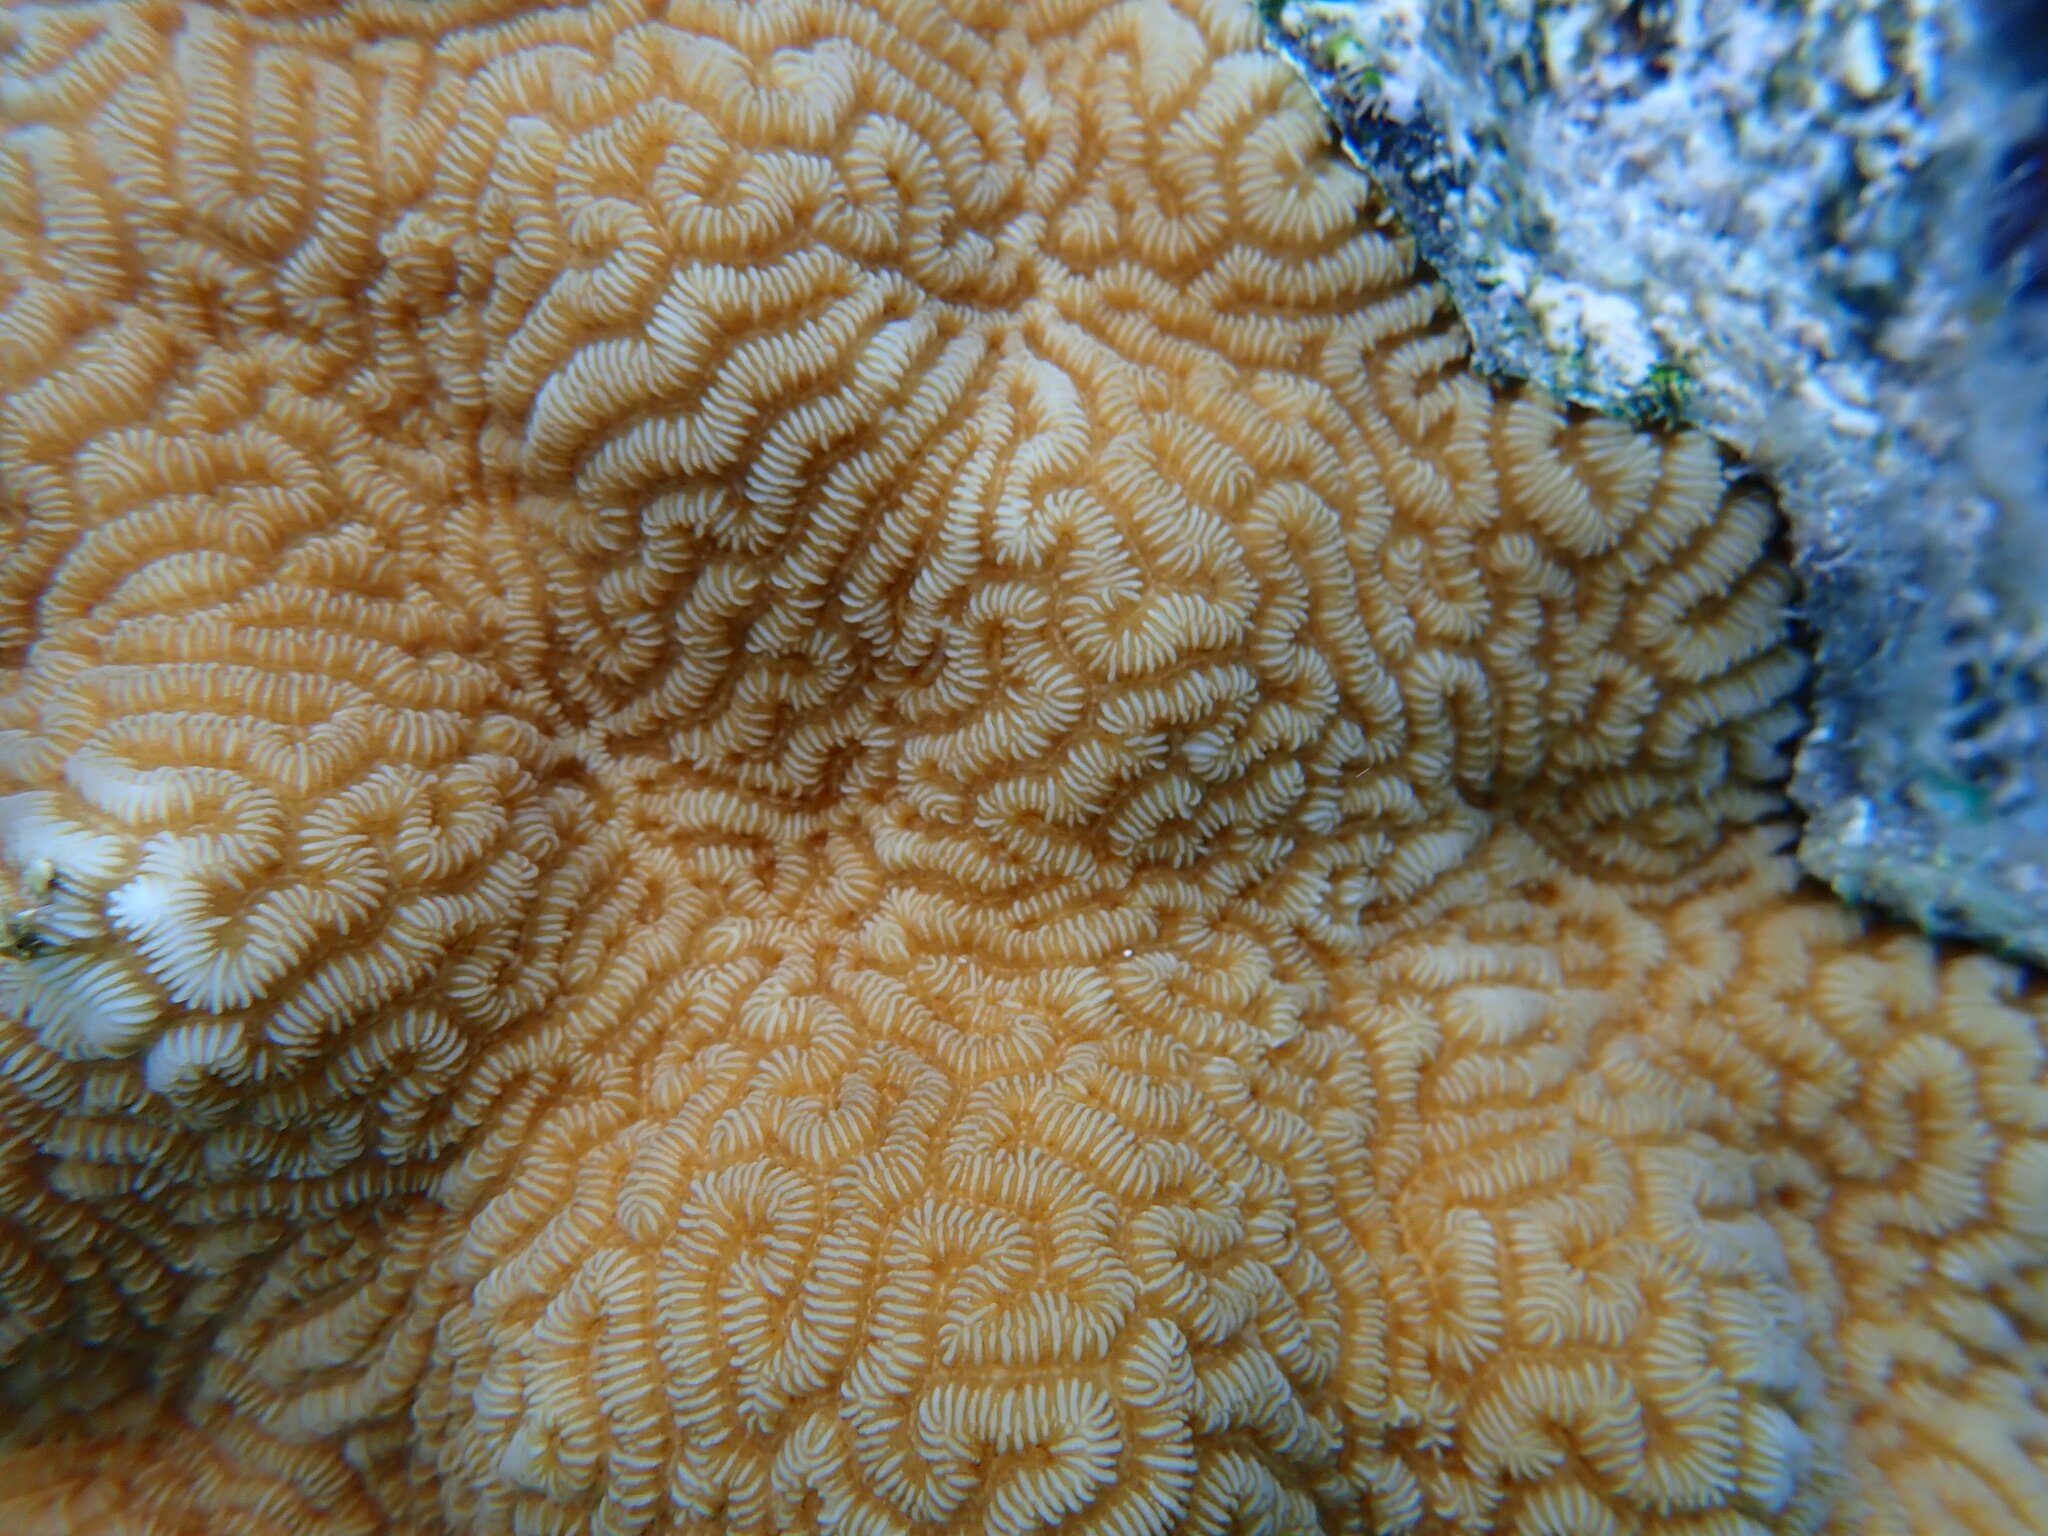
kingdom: Animalia
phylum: Cnidaria
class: Anthozoa
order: Scleractinia
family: Merulinidae
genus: Leptoria
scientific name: Leptoria phrygia
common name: Least valley coral
